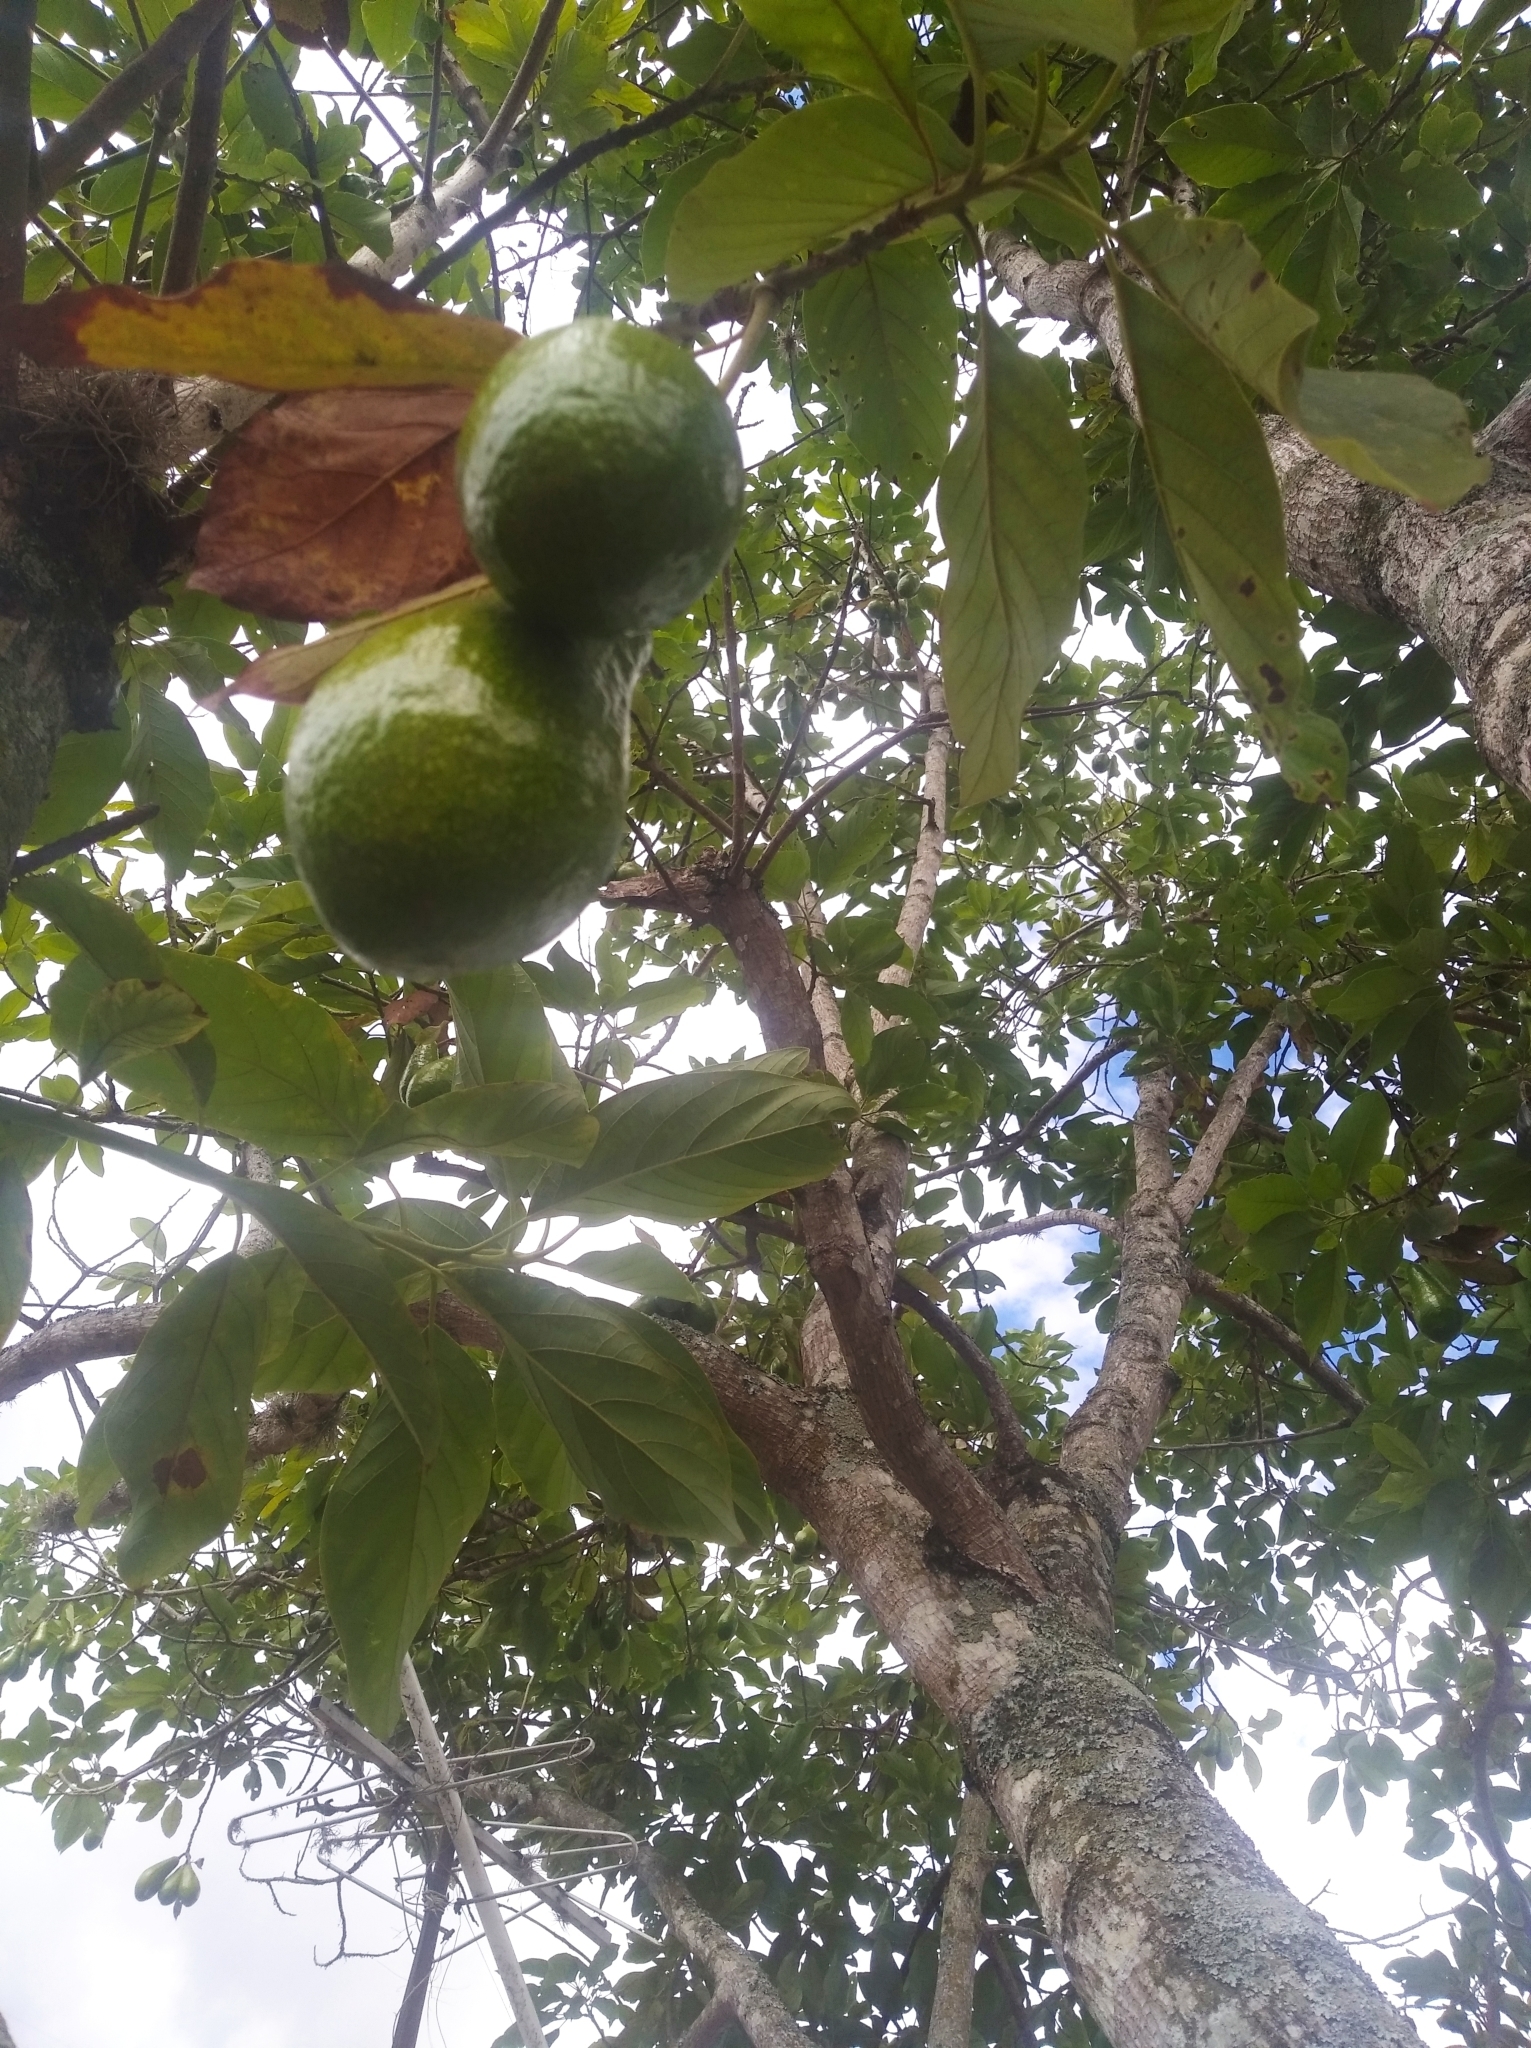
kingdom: Plantae
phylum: Tracheophyta
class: Magnoliopsida
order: Laurales
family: Lauraceae
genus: Persea
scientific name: Persea americana
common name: Avocado
